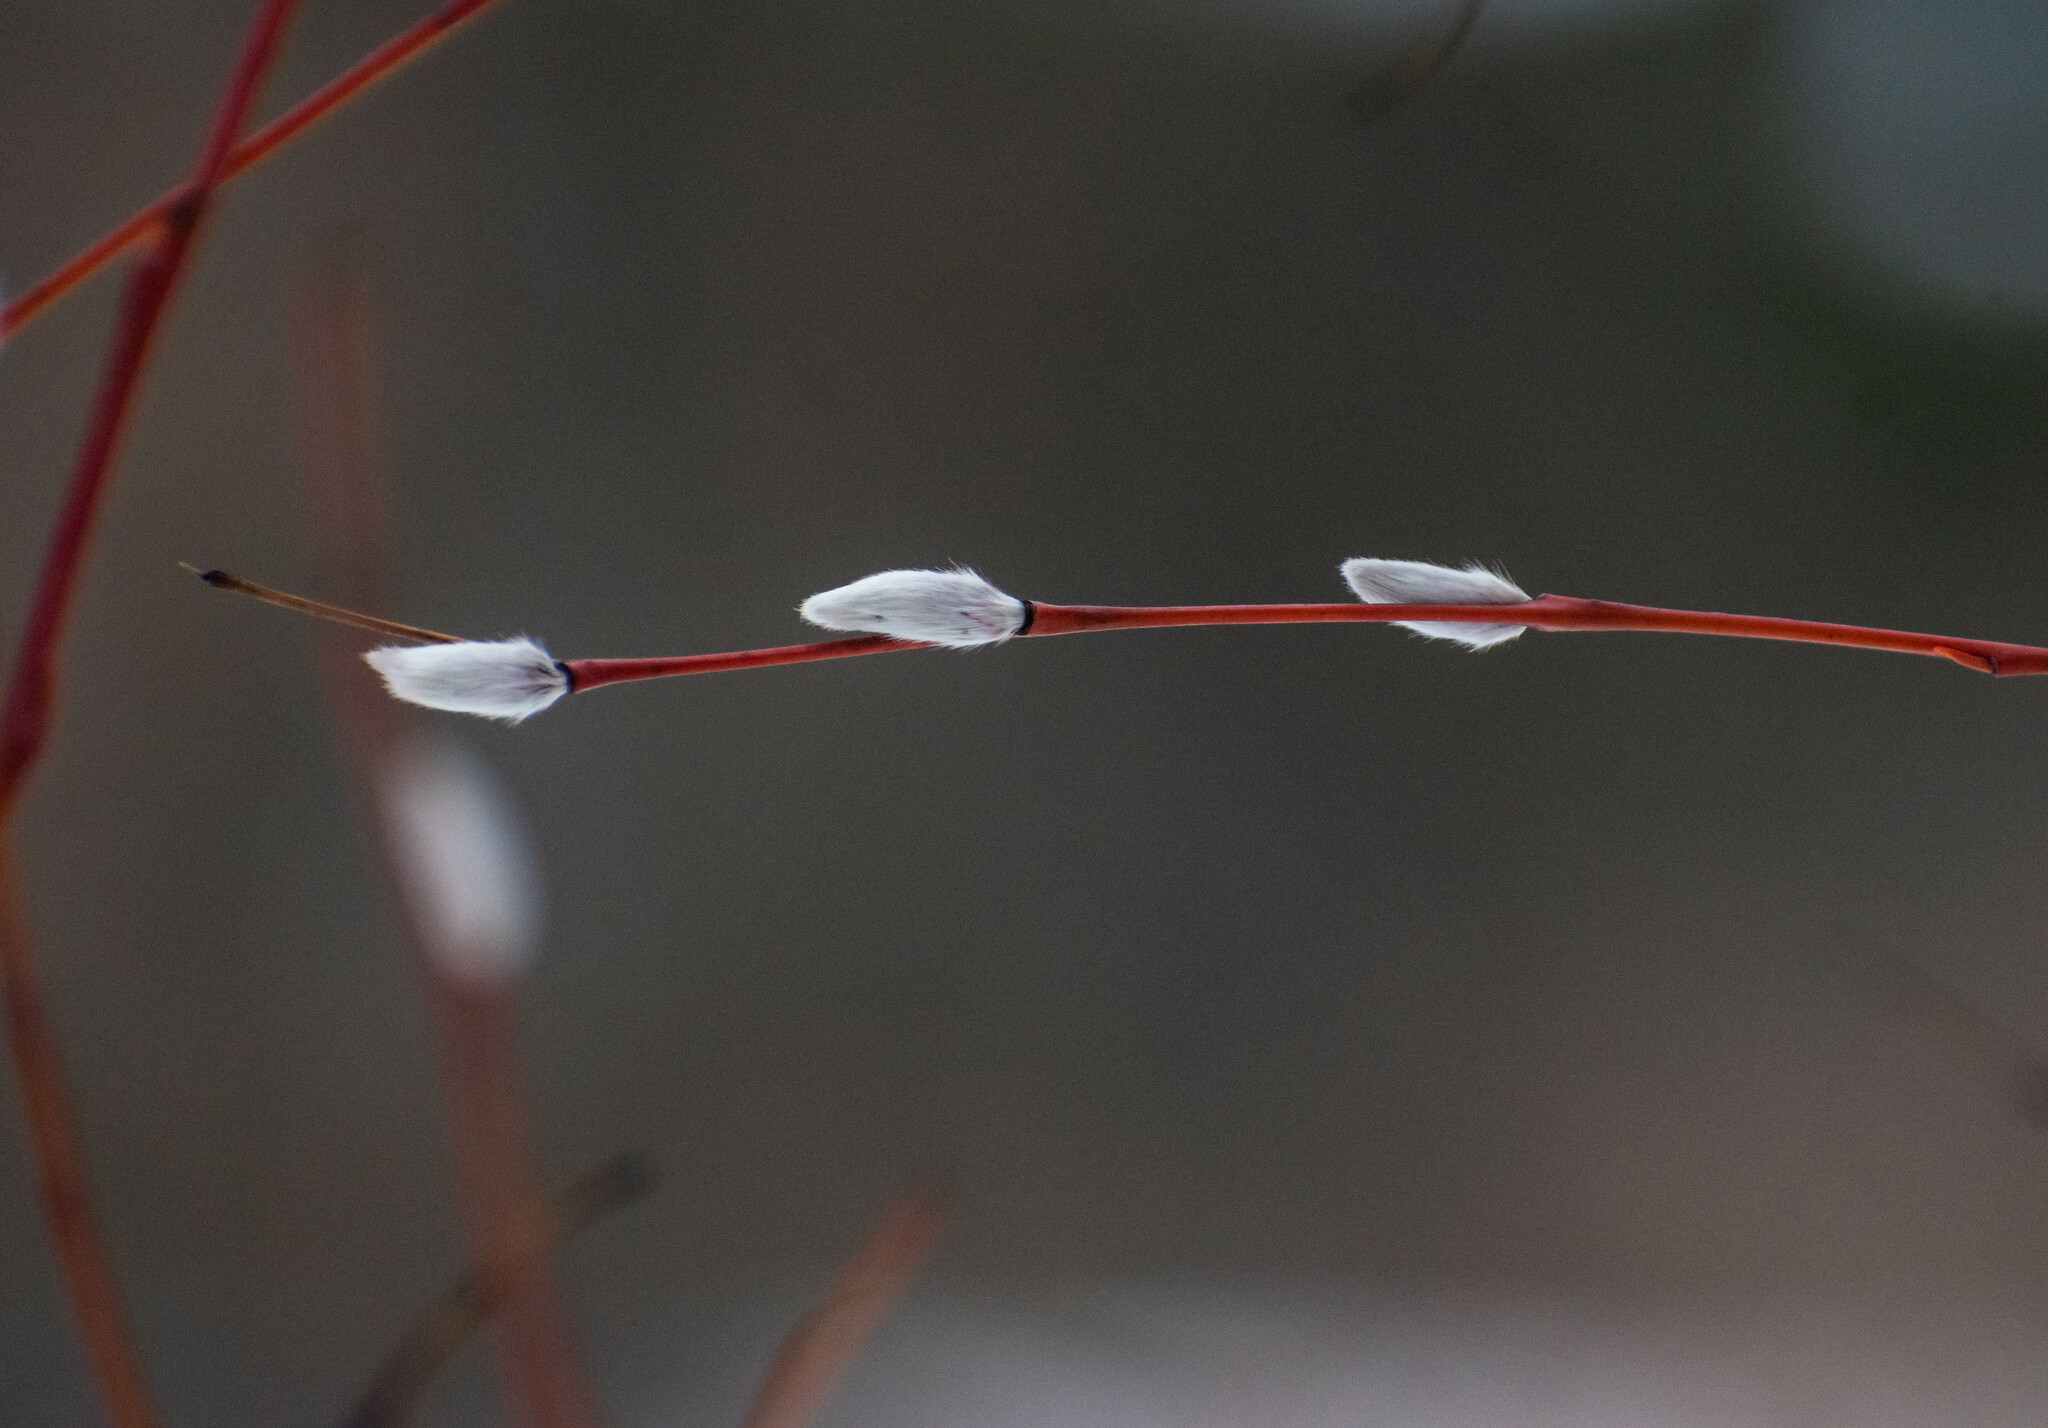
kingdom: Plantae
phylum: Tracheophyta
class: Magnoliopsida
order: Malpighiales
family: Salicaceae
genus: Salix
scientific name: Salix acutifolia
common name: Siberian violet-willow
